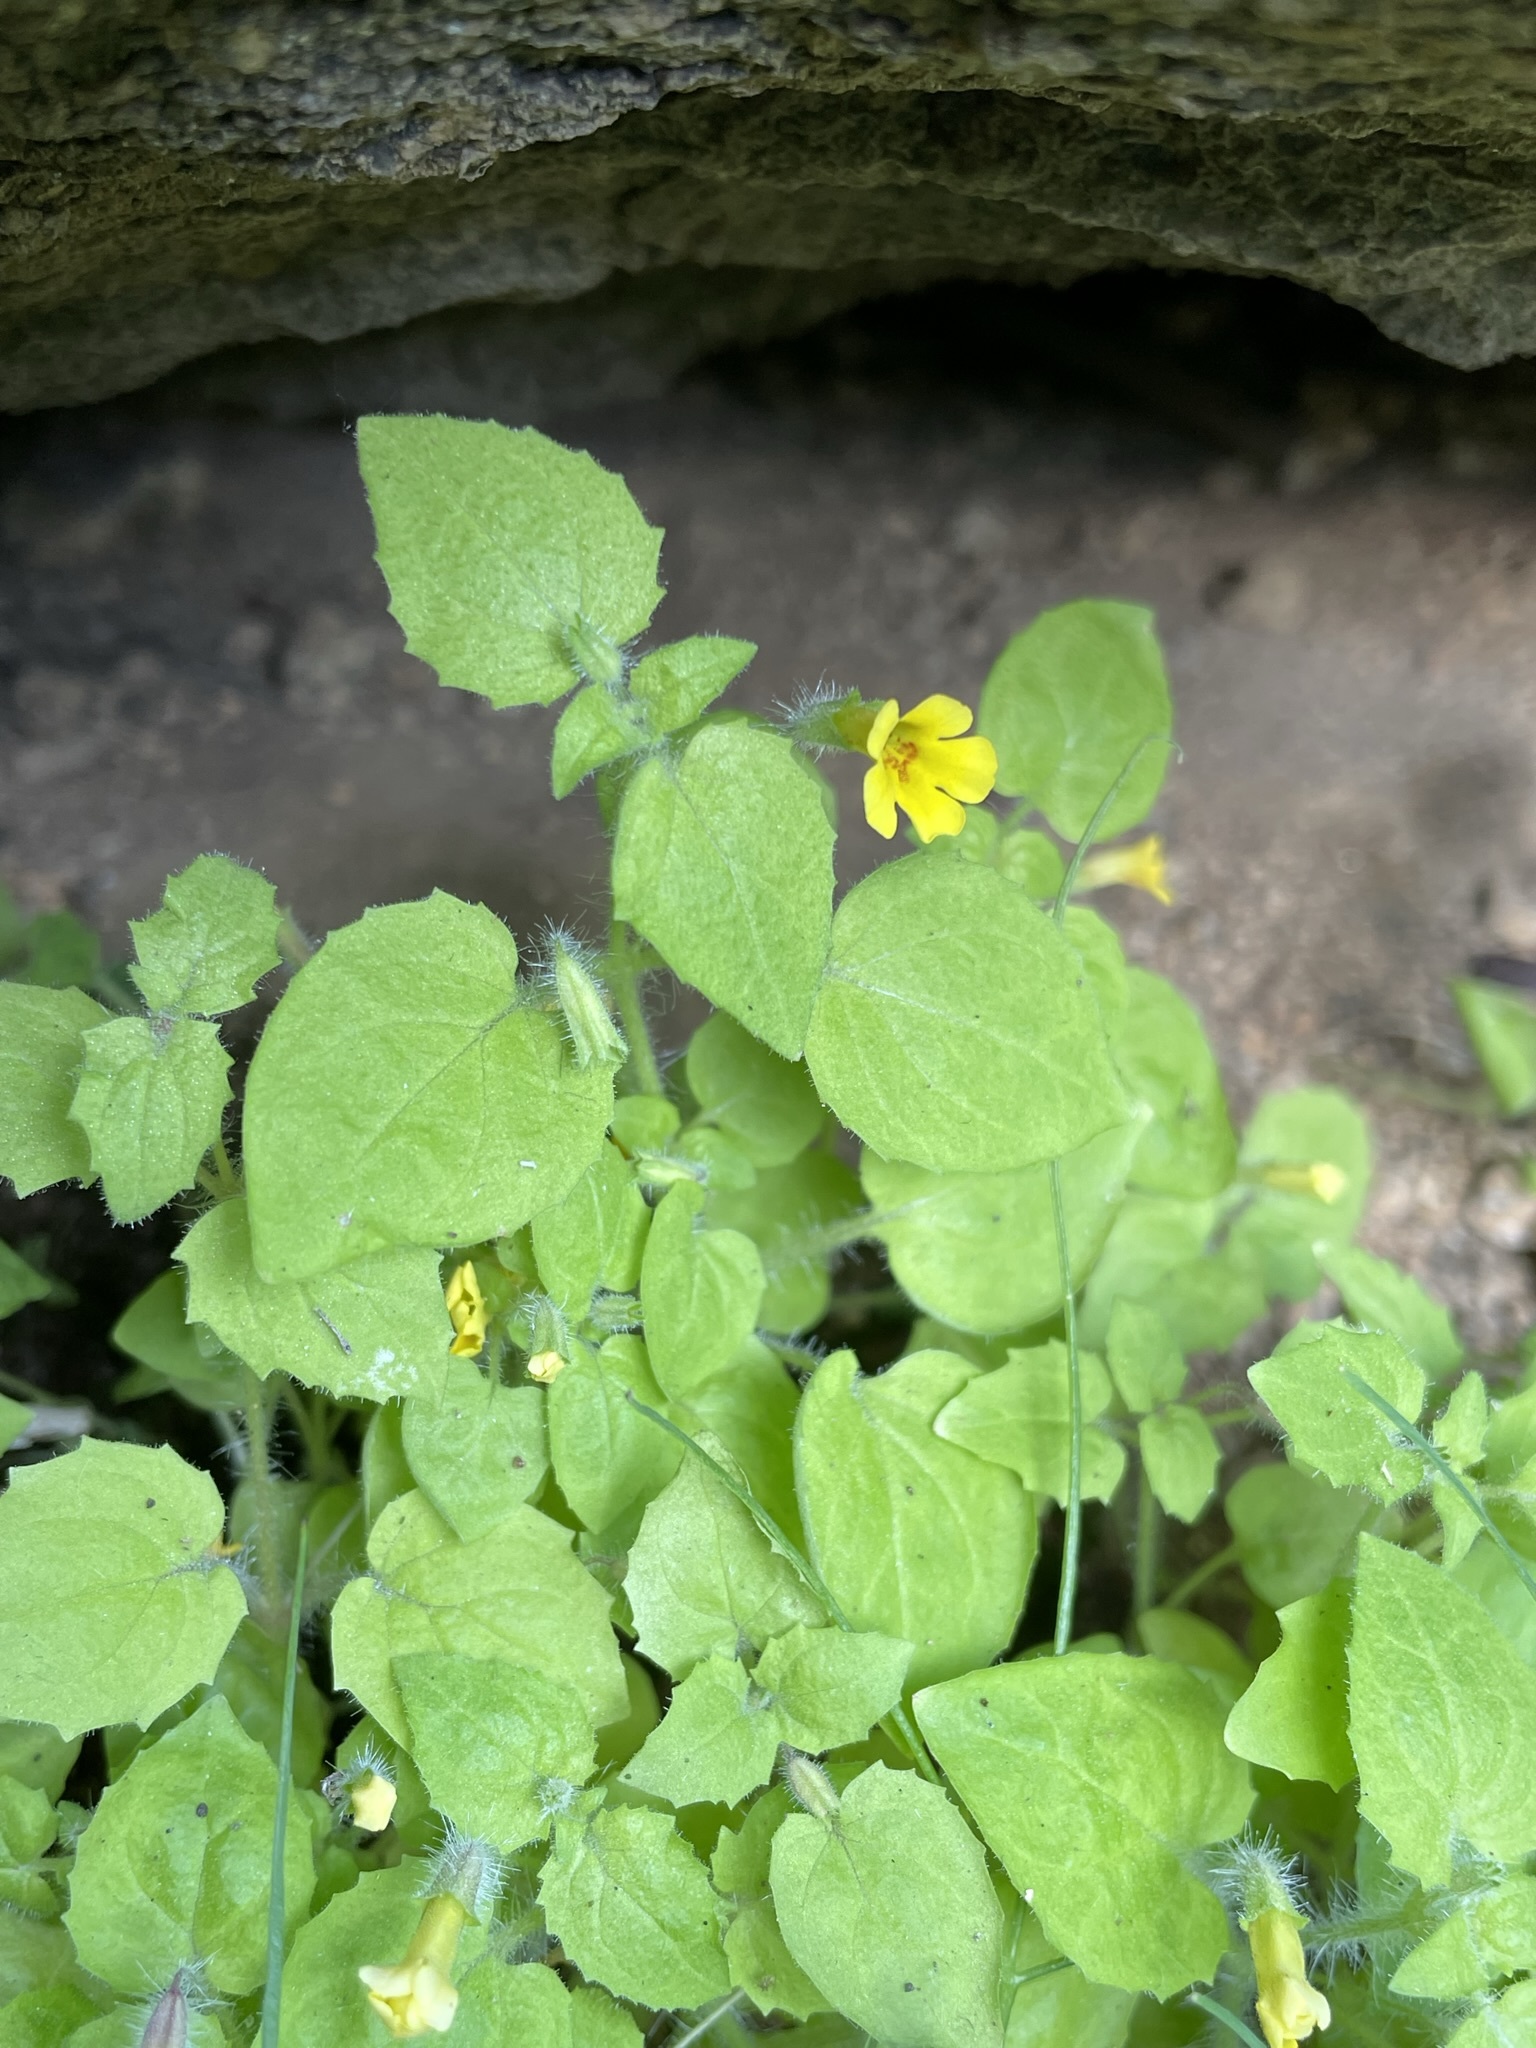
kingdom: Plantae
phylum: Tracheophyta
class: Magnoliopsida
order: Lamiales
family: Phrymaceae
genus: Erythranthe
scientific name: Erythranthe geniculata
